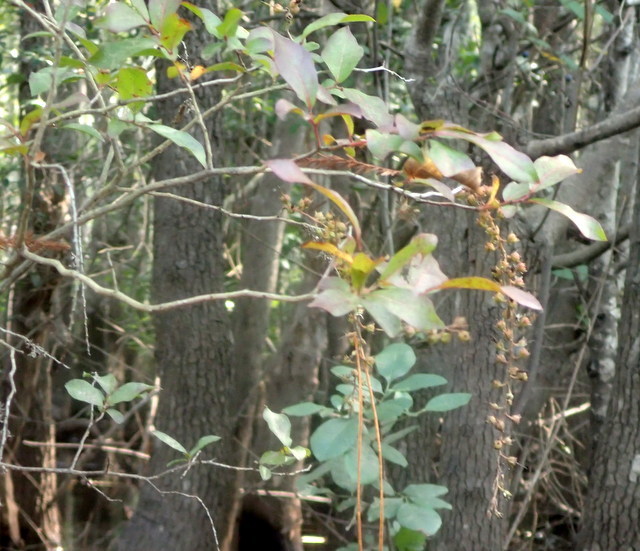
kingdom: Plantae
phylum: Tracheophyta
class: Magnoliopsida
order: Ericales
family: Ericaceae
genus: Eubotrys
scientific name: Eubotrys racemosa
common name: Fetterbush
